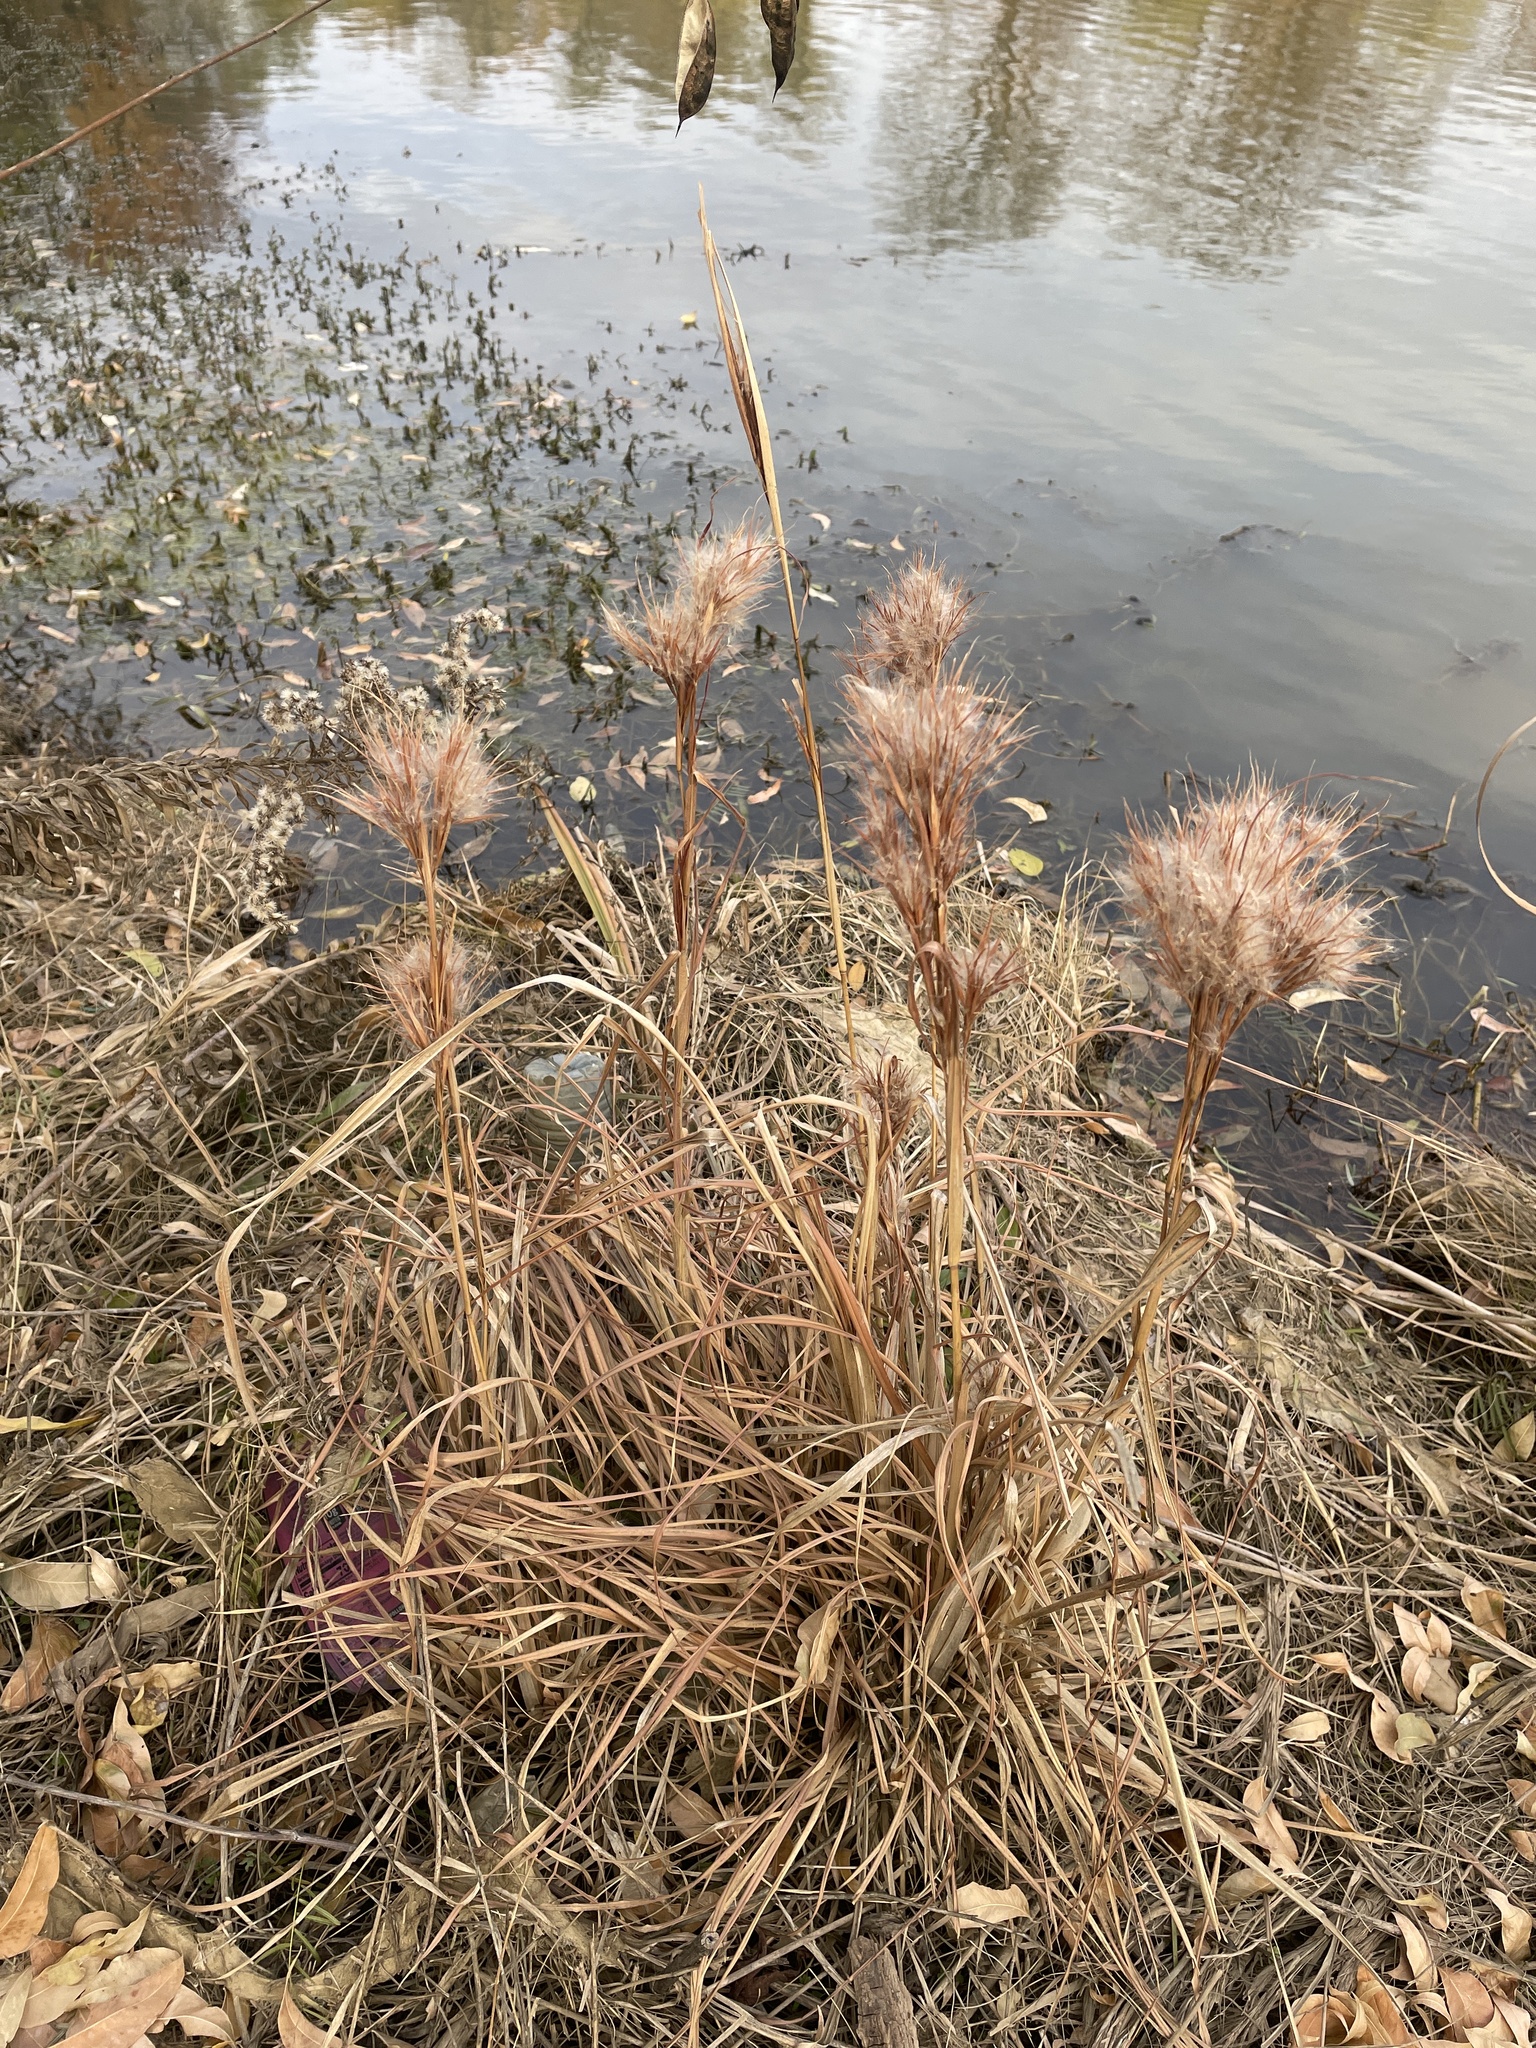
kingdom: Plantae
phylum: Tracheophyta
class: Liliopsida
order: Poales
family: Poaceae
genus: Andropogon
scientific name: Andropogon tenuispatheus
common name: Bushy bluestem
